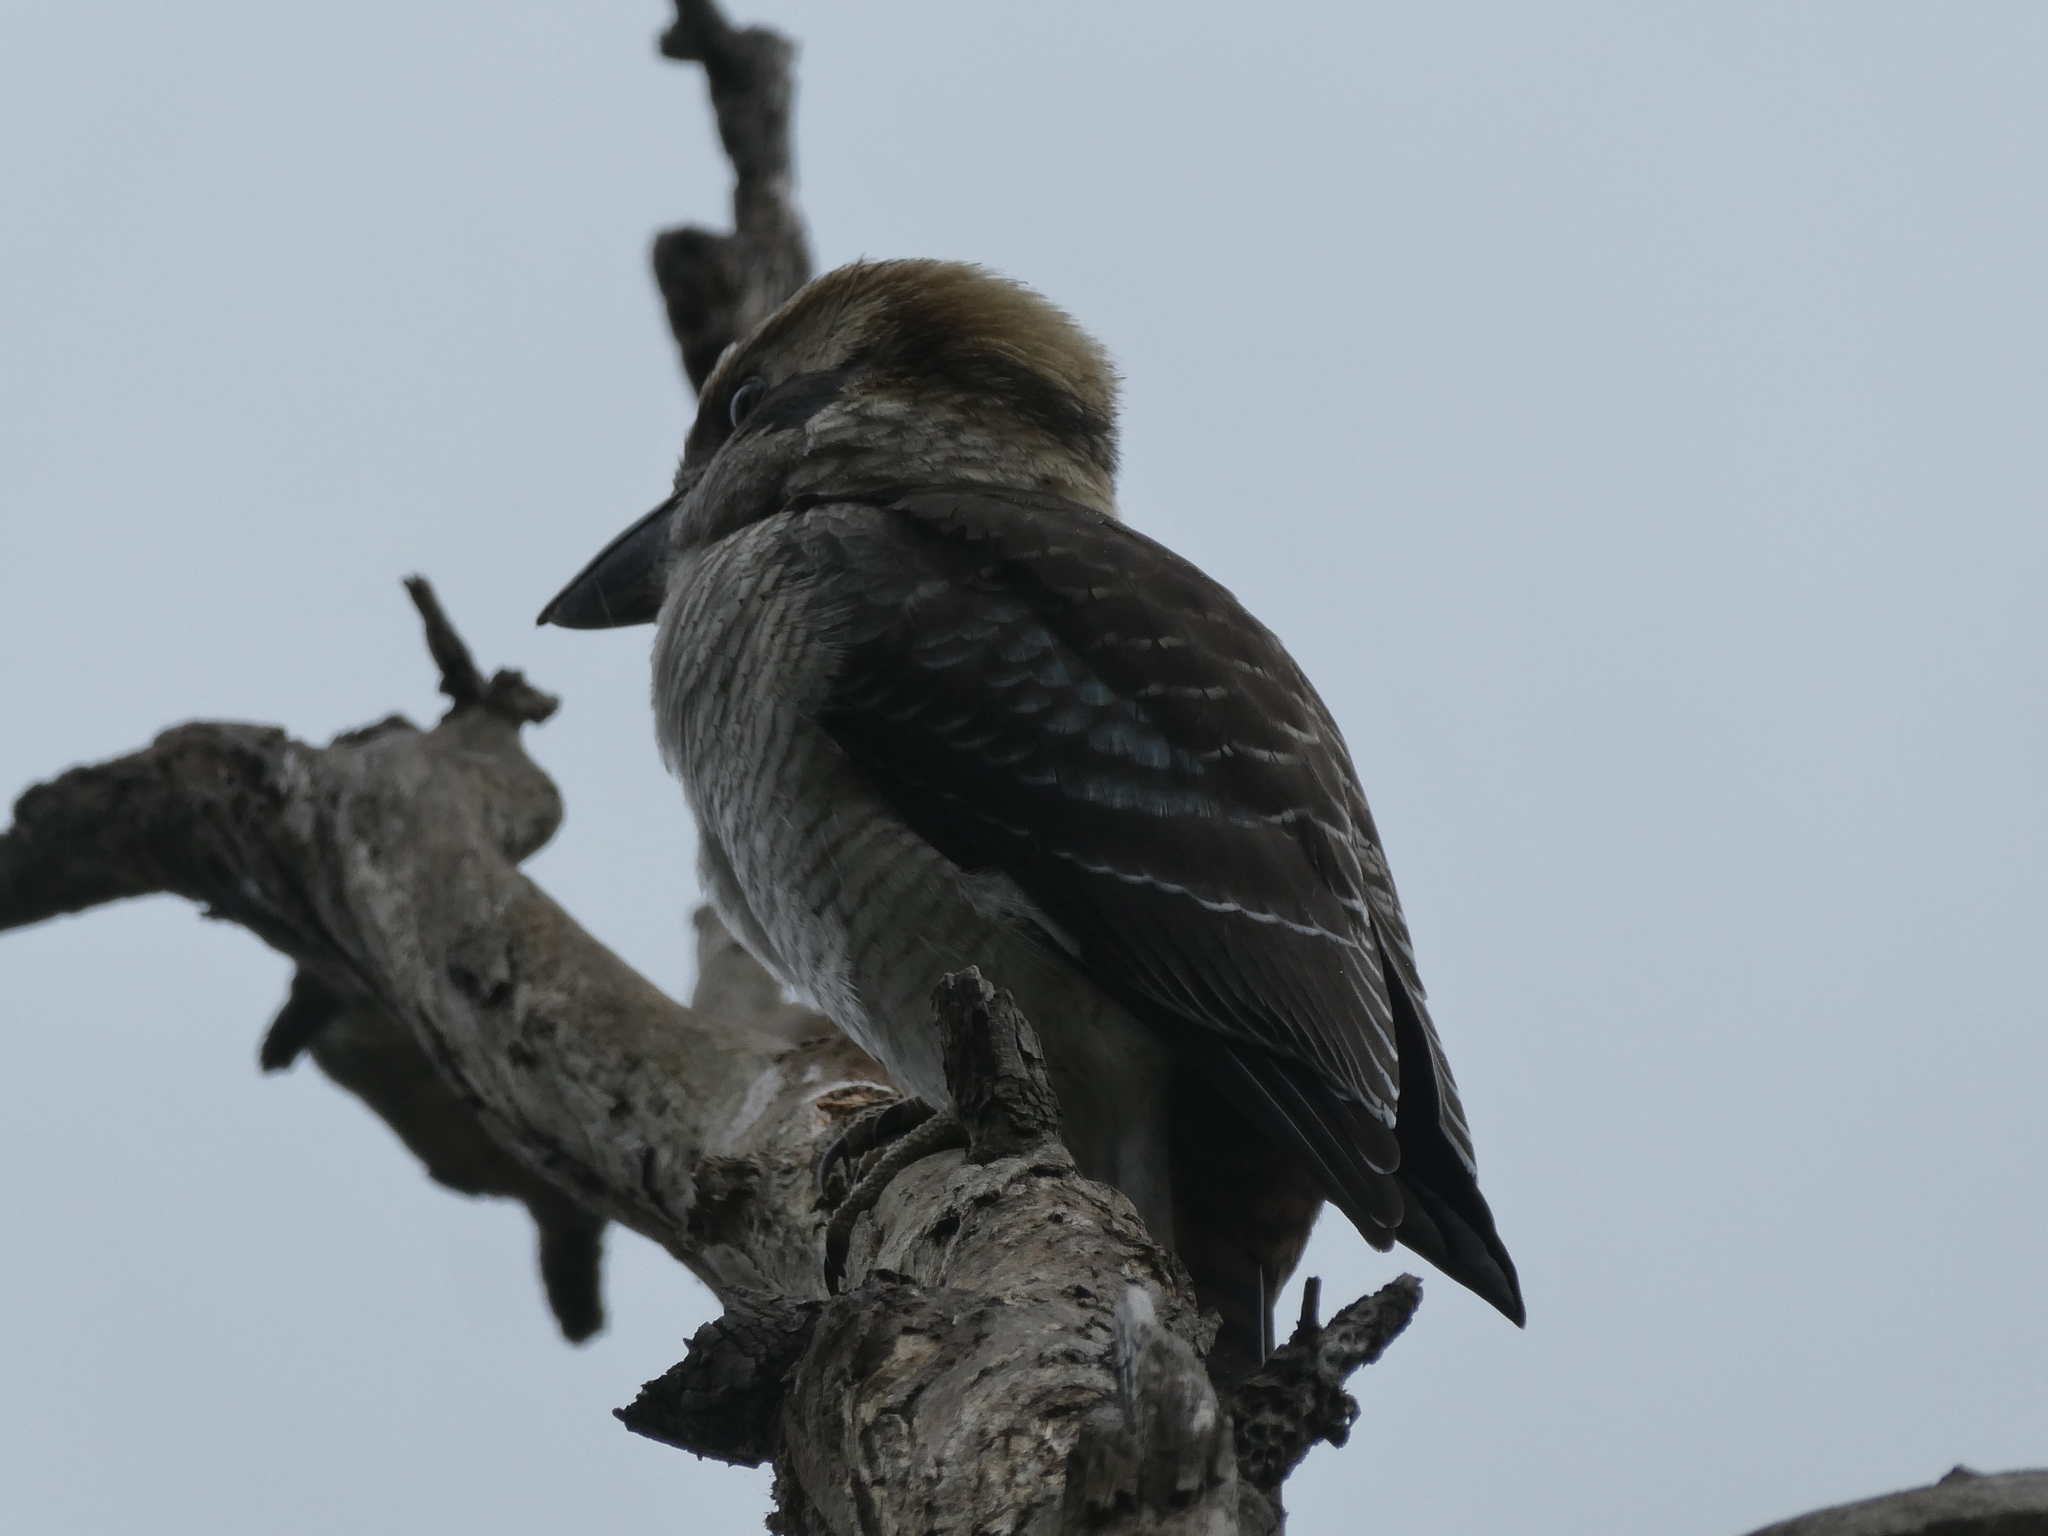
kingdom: Animalia
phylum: Chordata
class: Aves
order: Coraciiformes
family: Alcedinidae
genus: Dacelo
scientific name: Dacelo novaeguineae
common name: Laughing kookaburra
